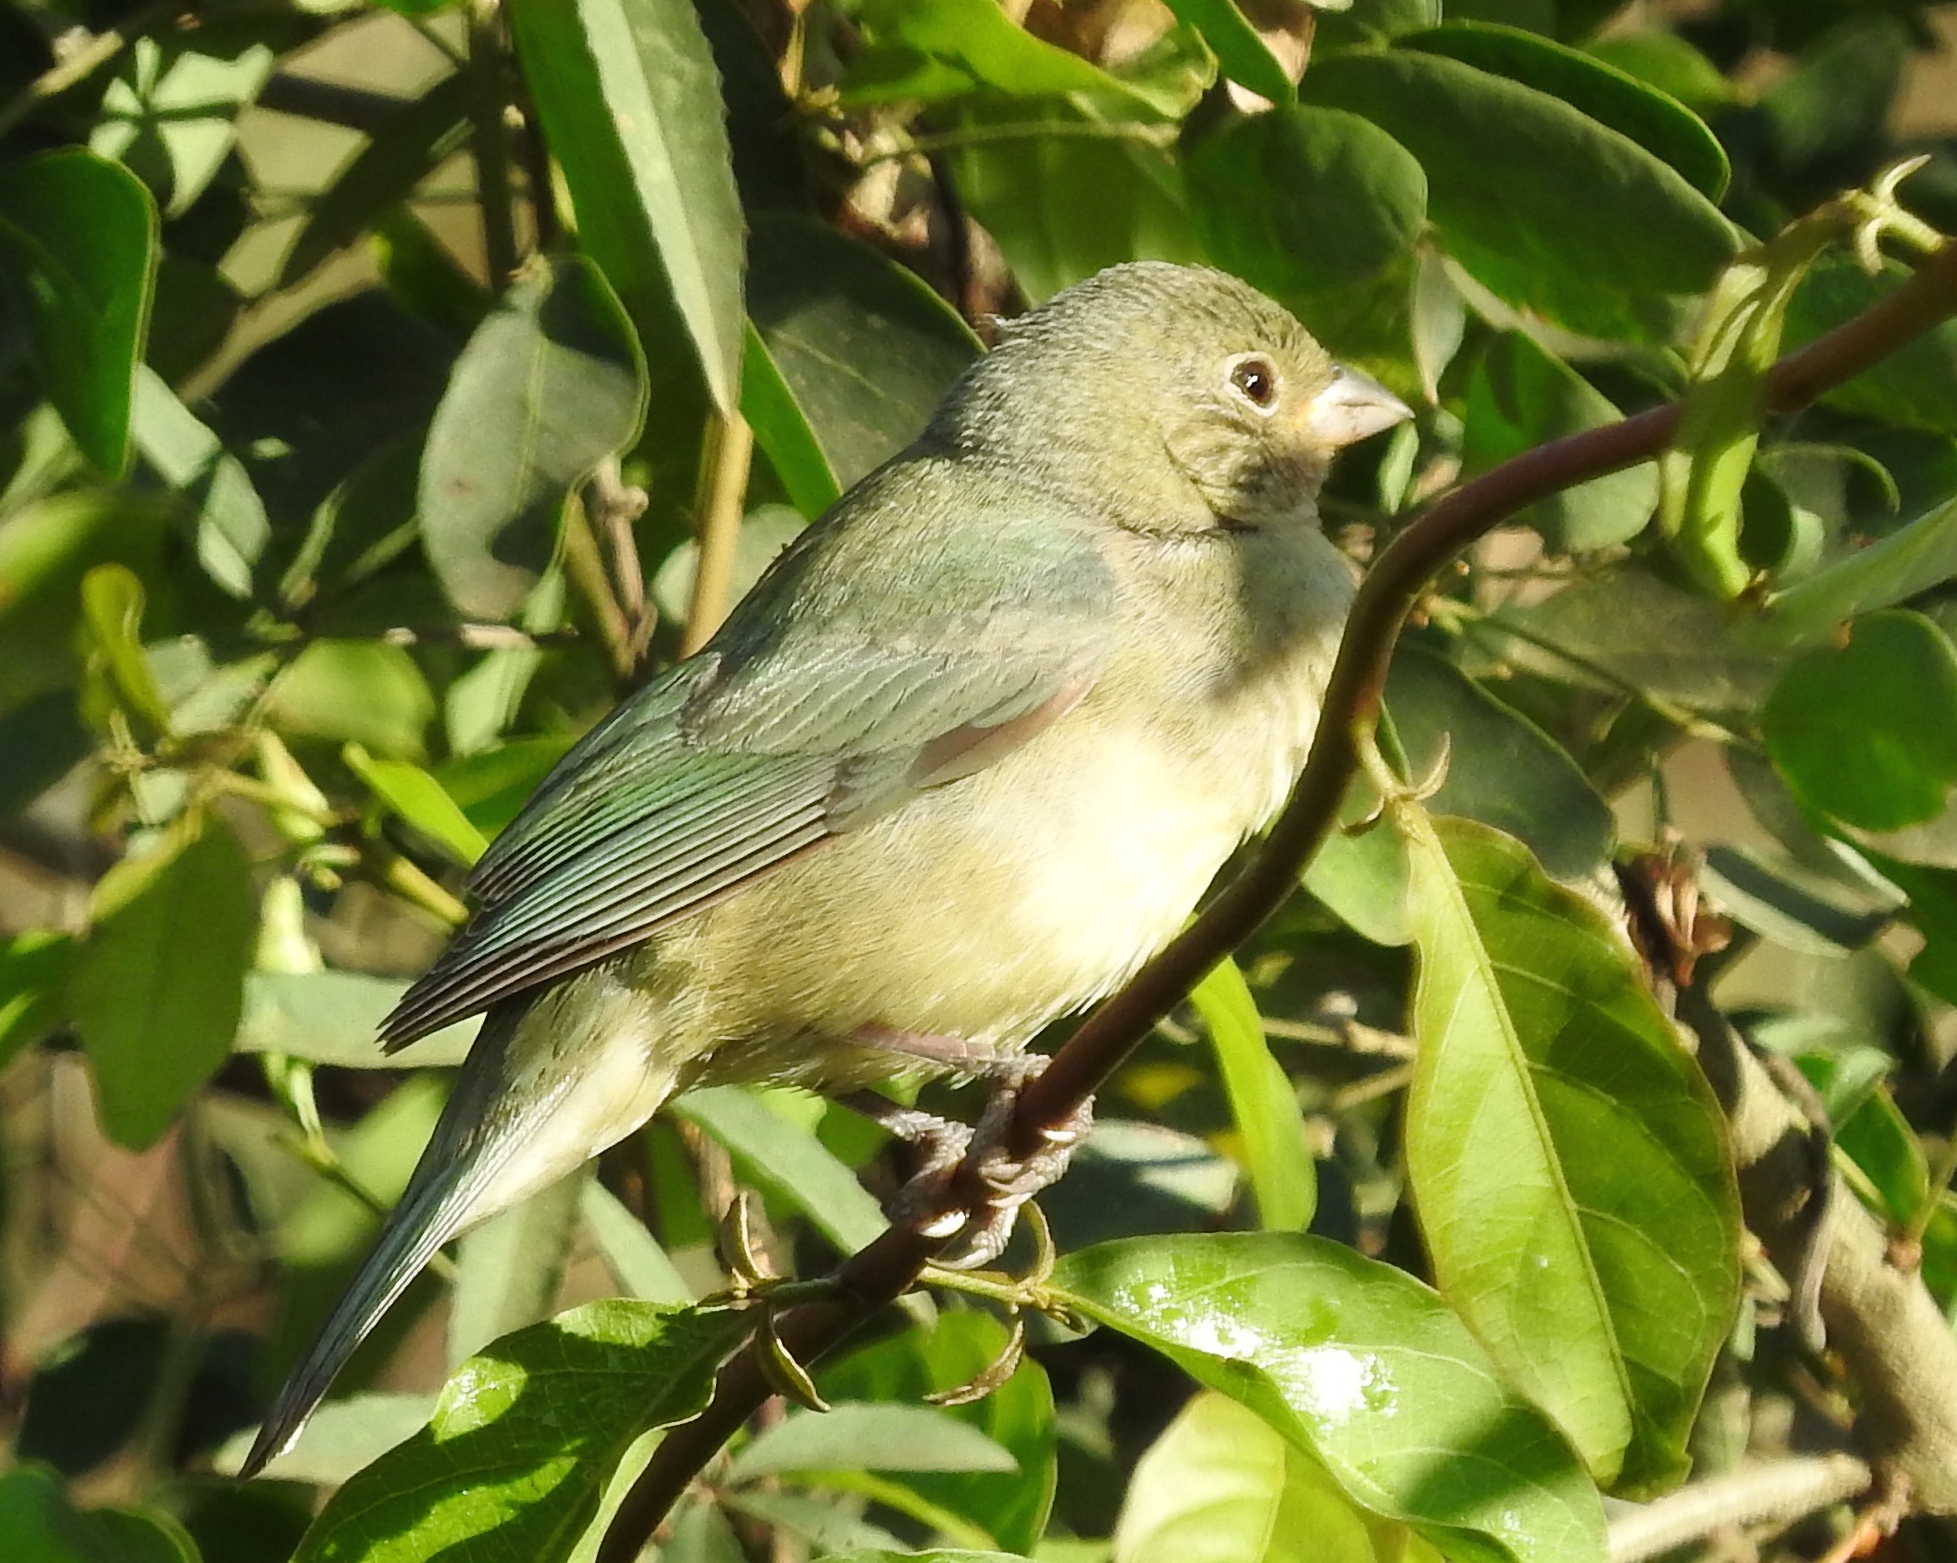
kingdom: Animalia
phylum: Chordata
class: Aves
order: Passeriformes
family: Cardinalidae
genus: Passerina
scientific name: Passerina ciris
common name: Painted bunting
